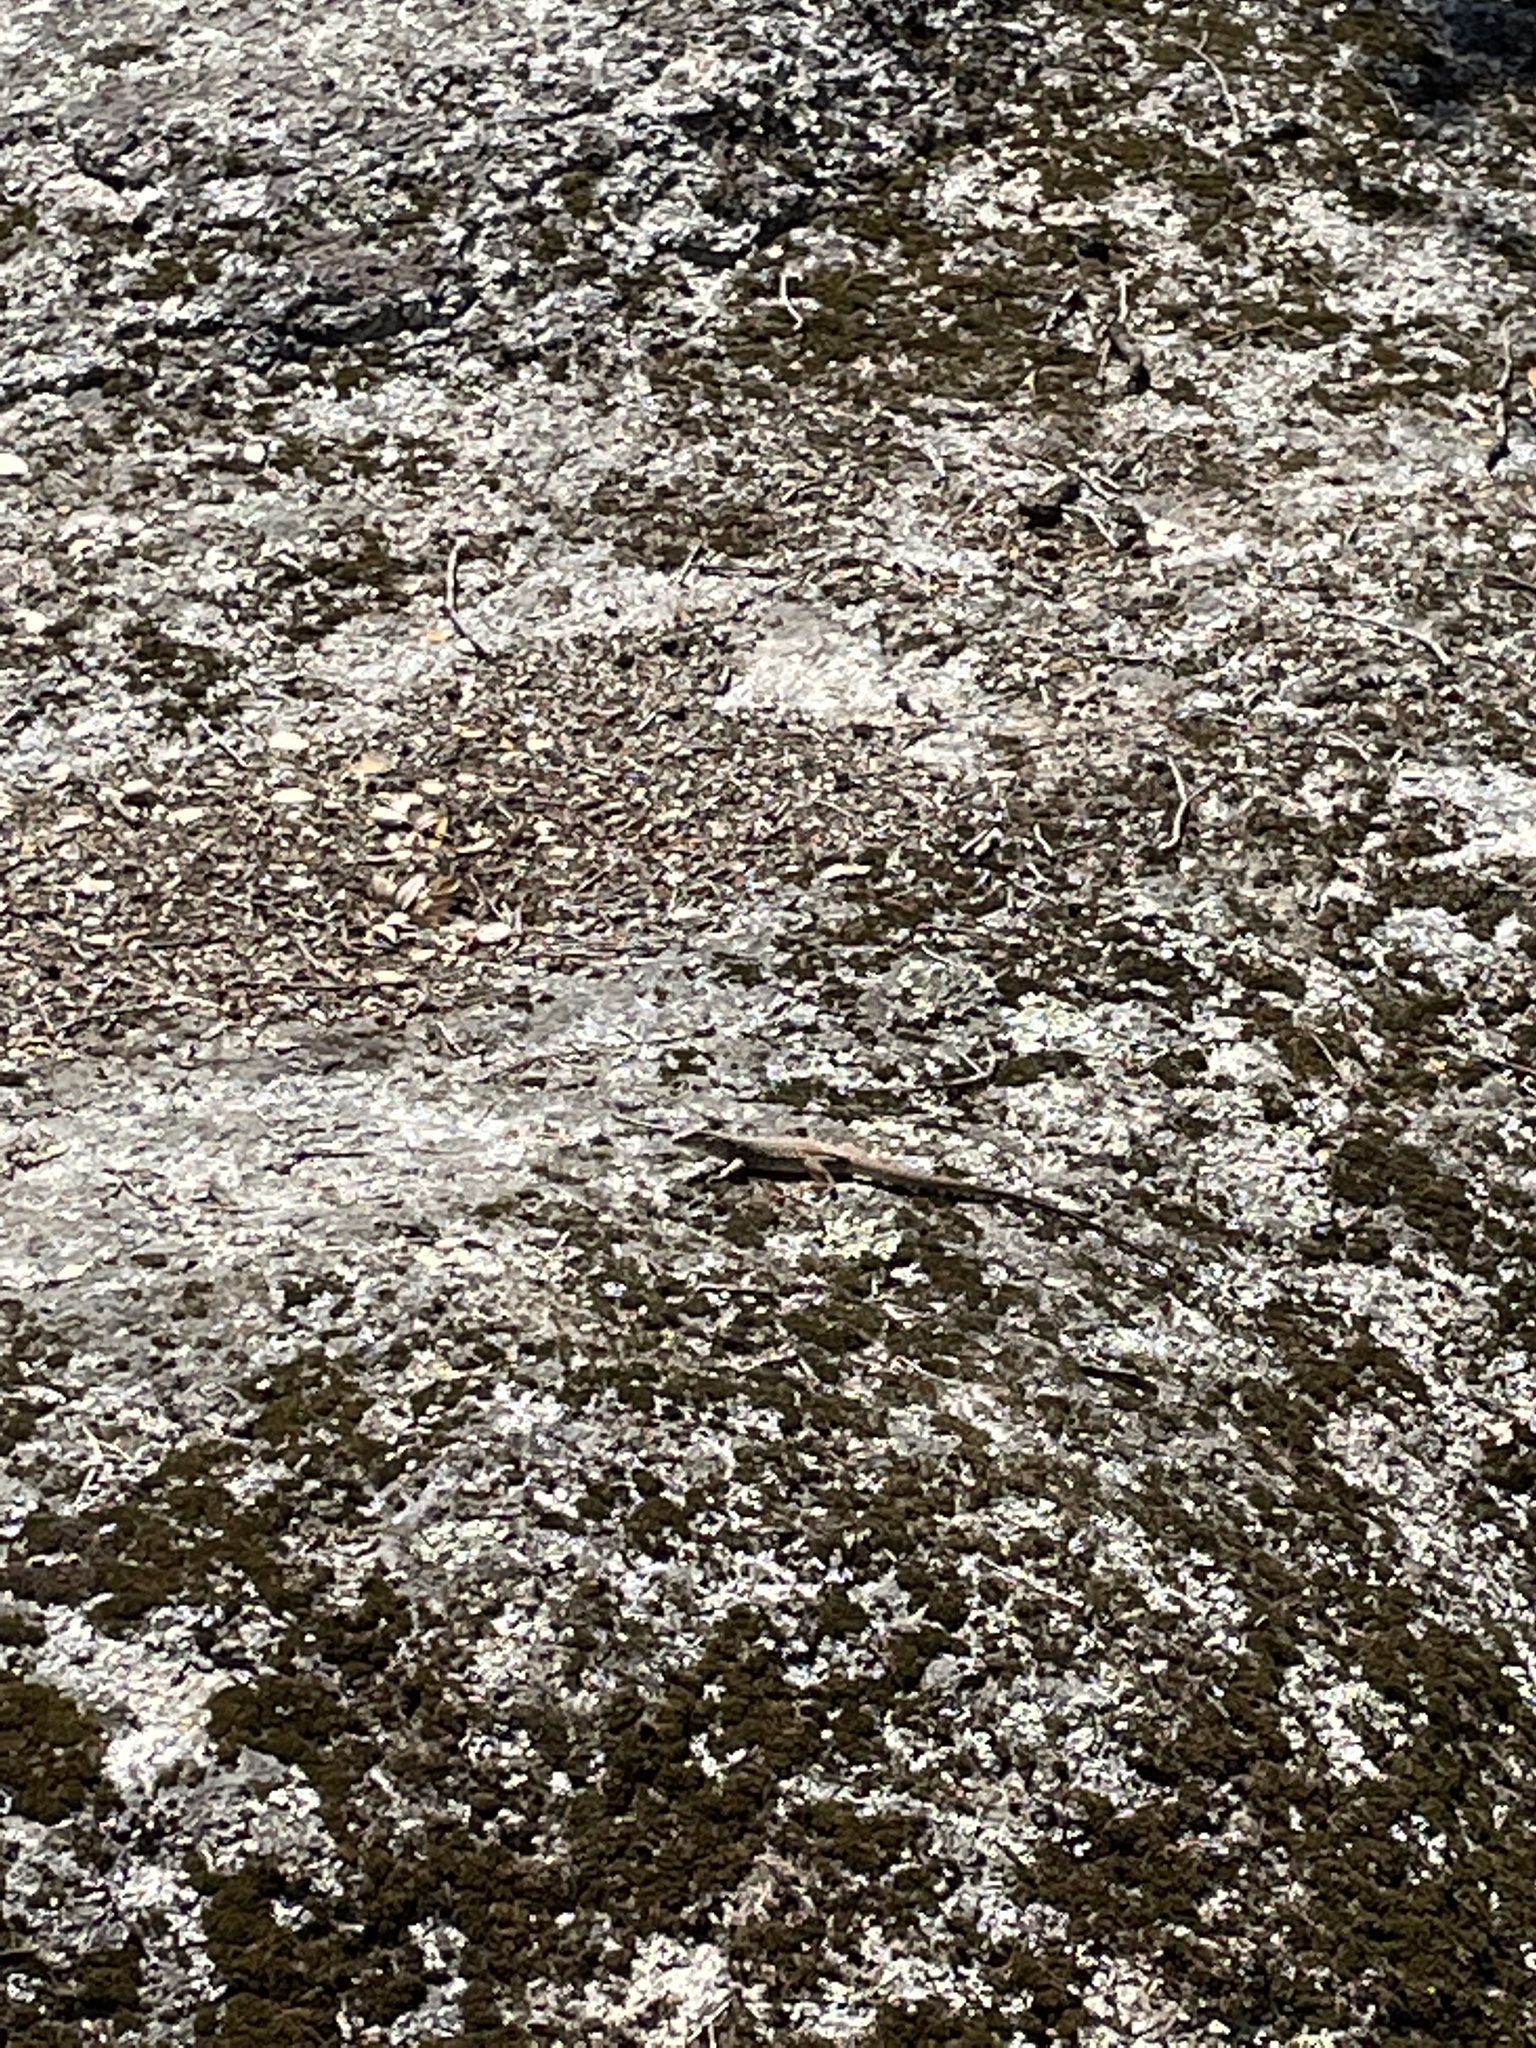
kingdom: Animalia
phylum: Chordata
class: Squamata
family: Teiidae
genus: Aspidoscelis
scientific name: Aspidoscelis tigris
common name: Tiger whiptail
